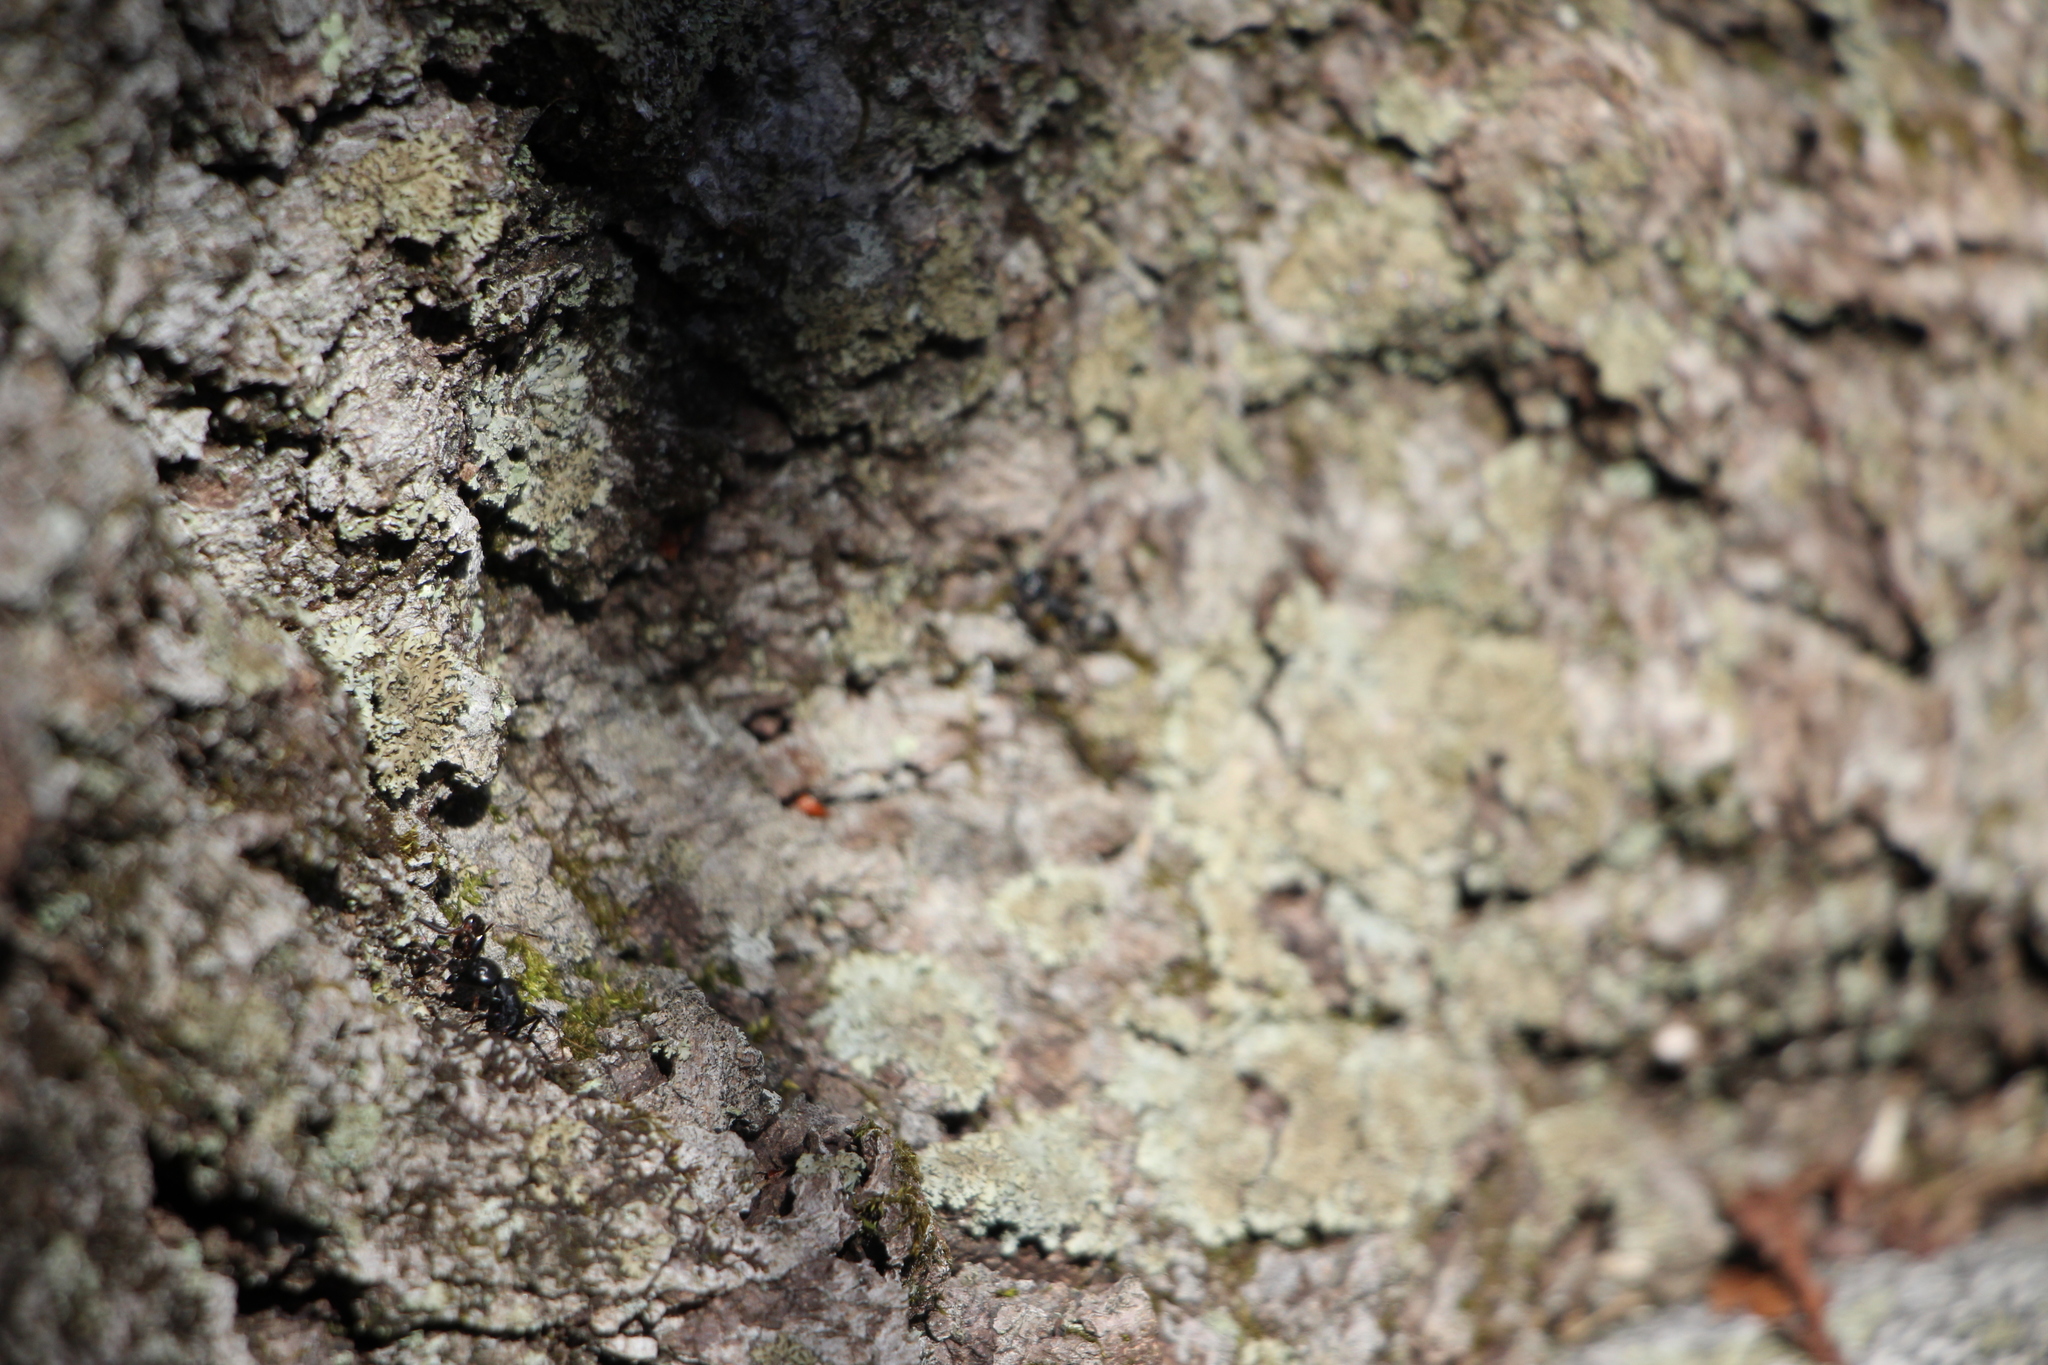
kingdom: Animalia
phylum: Arthropoda
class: Insecta
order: Hymenoptera
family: Formicidae
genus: Camponotus
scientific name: Camponotus pennsylvanicus
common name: Black carpenter ant
